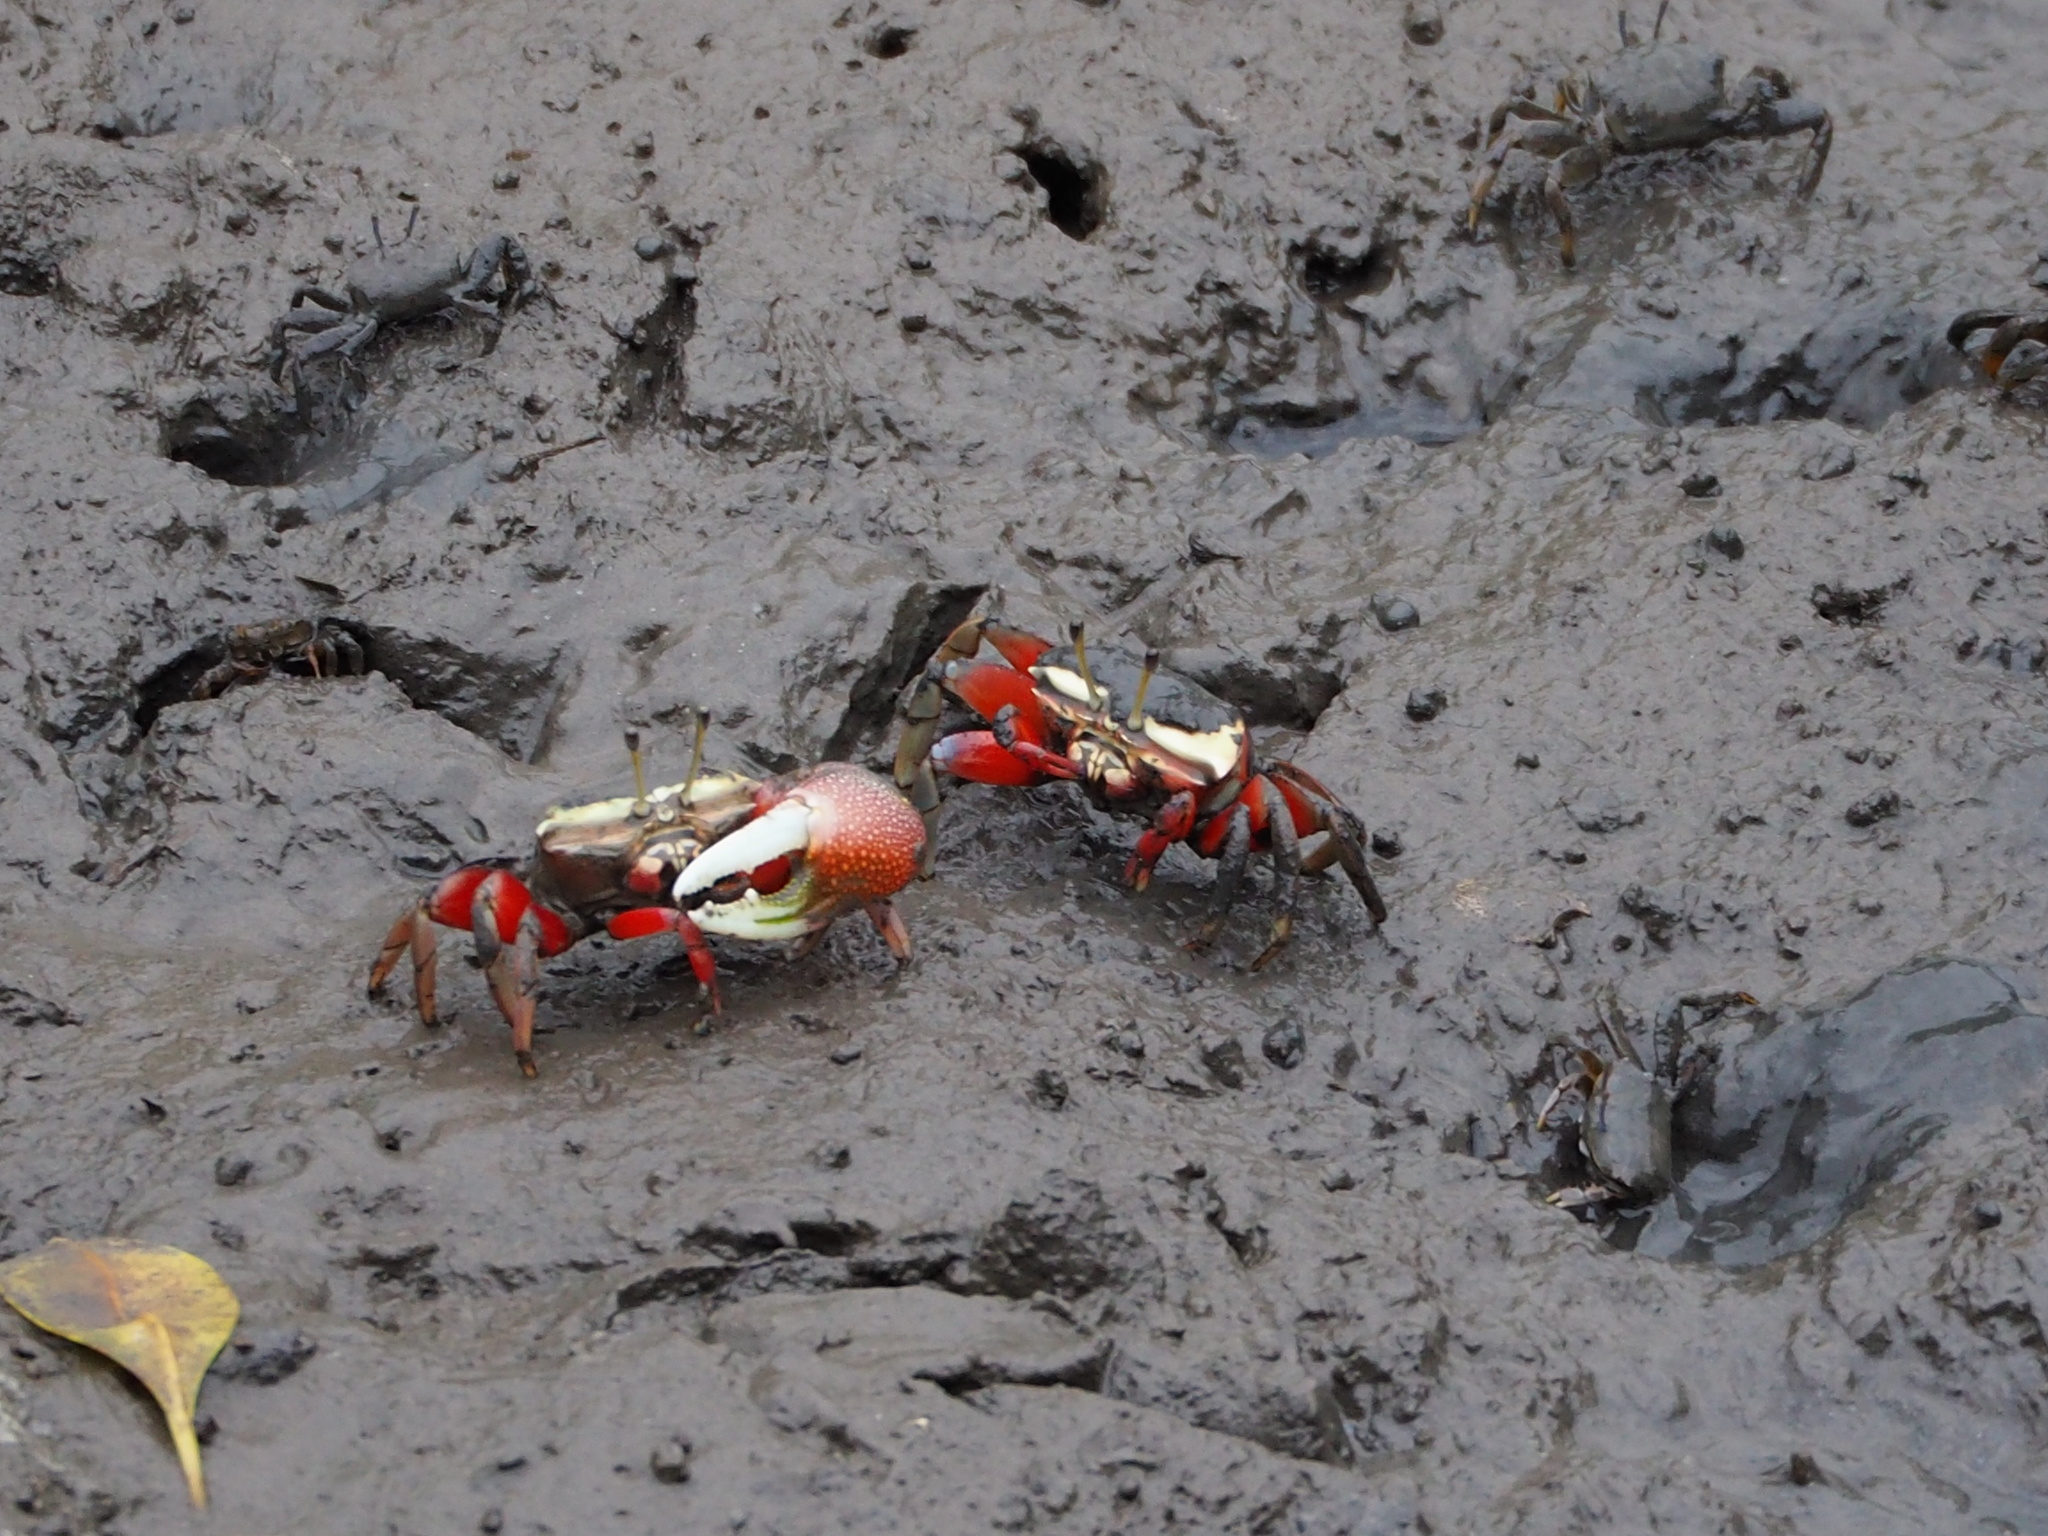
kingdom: Animalia
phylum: Arthropoda
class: Malacostraca
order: Decapoda
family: Ocypodidae
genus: Tubuca
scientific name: Tubuca arcuata
